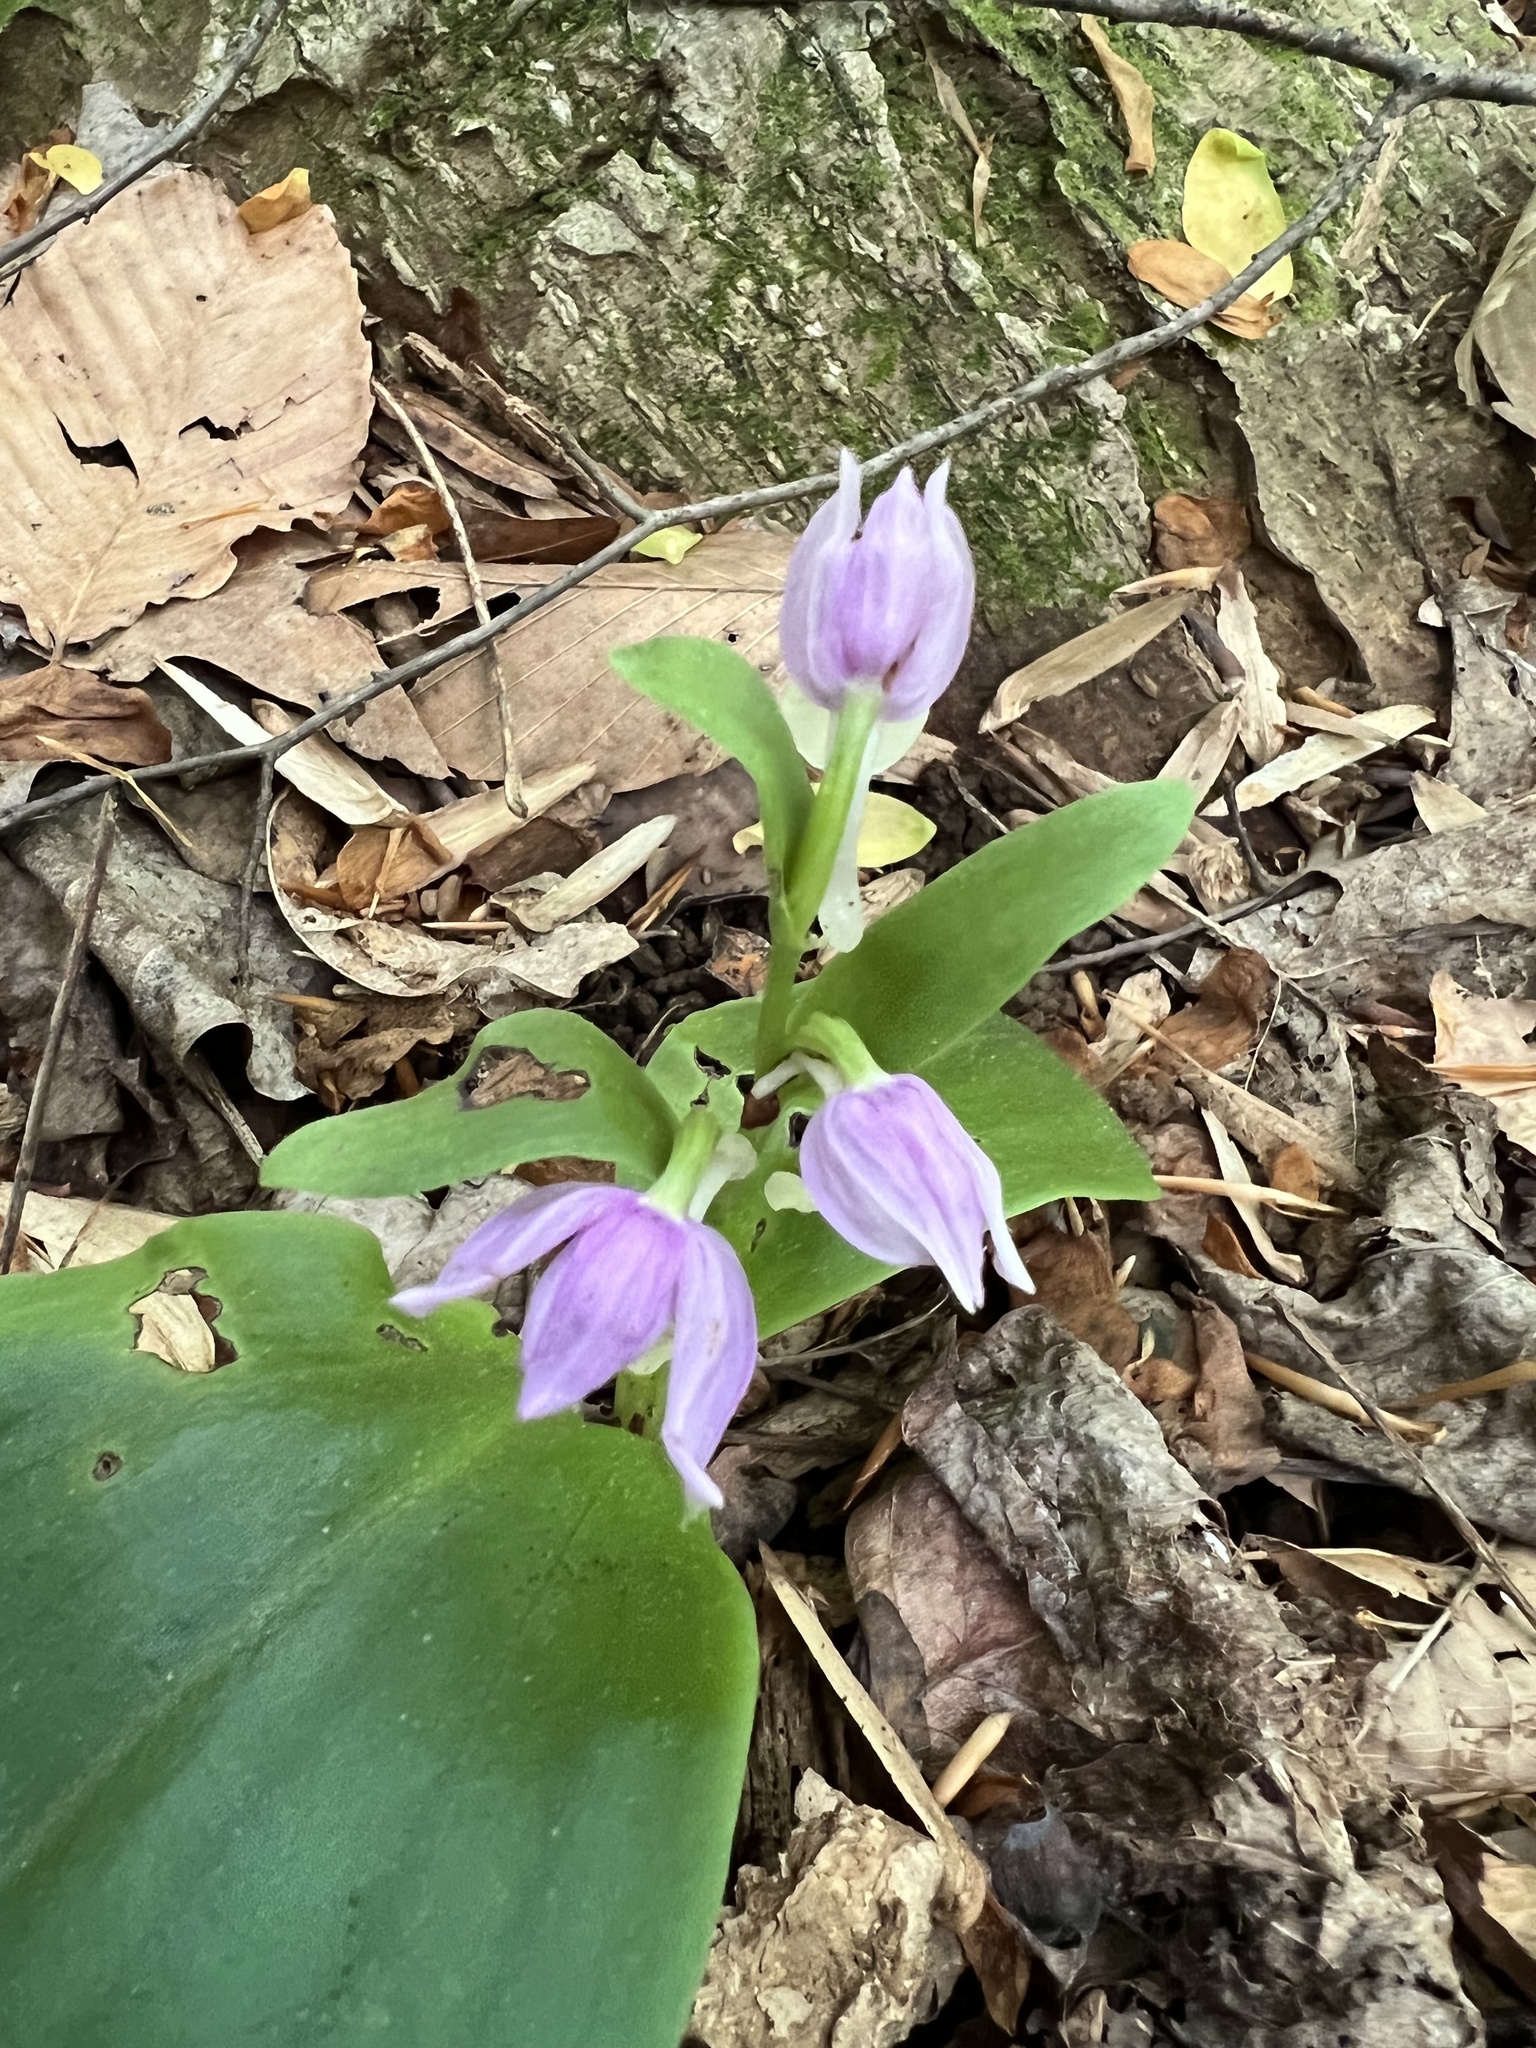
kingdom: Plantae
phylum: Tracheophyta
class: Liliopsida
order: Asparagales
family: Orchidaceae
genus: Galearis
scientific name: Galearis spectabilis
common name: Purple-hooded orchis
